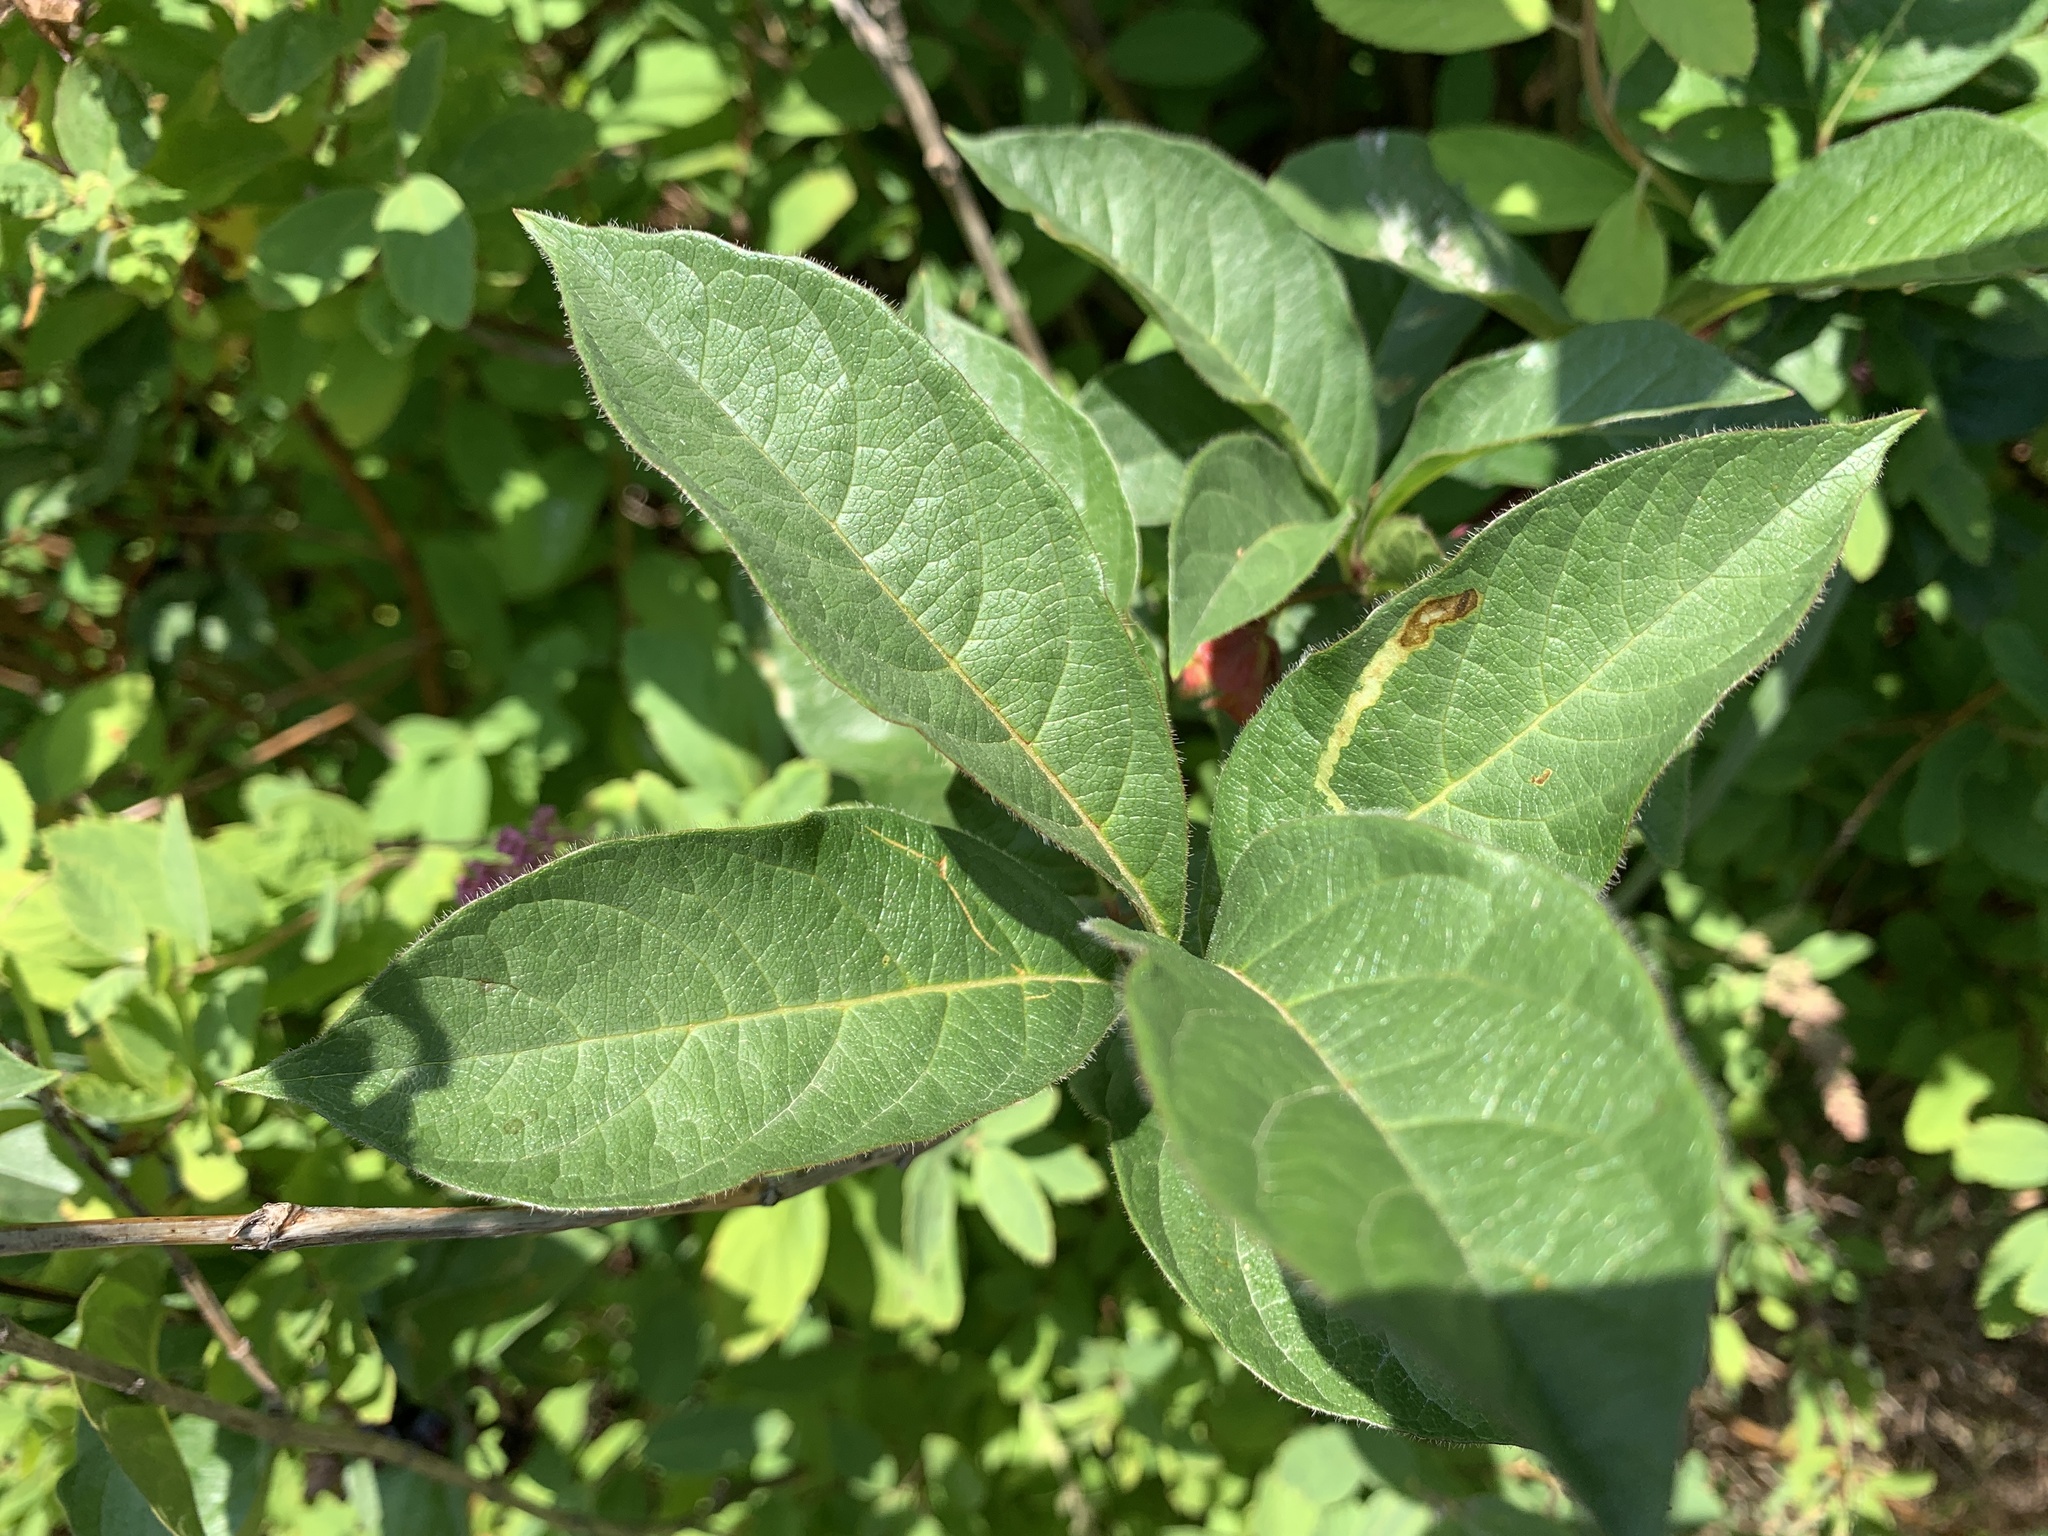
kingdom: Plantae
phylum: Tracheophyta
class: Magnoliopsida
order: Dipsacales
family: Caprifoliaceae
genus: Lonicera
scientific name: Lonicera involucrata
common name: Californian honeysuckle
